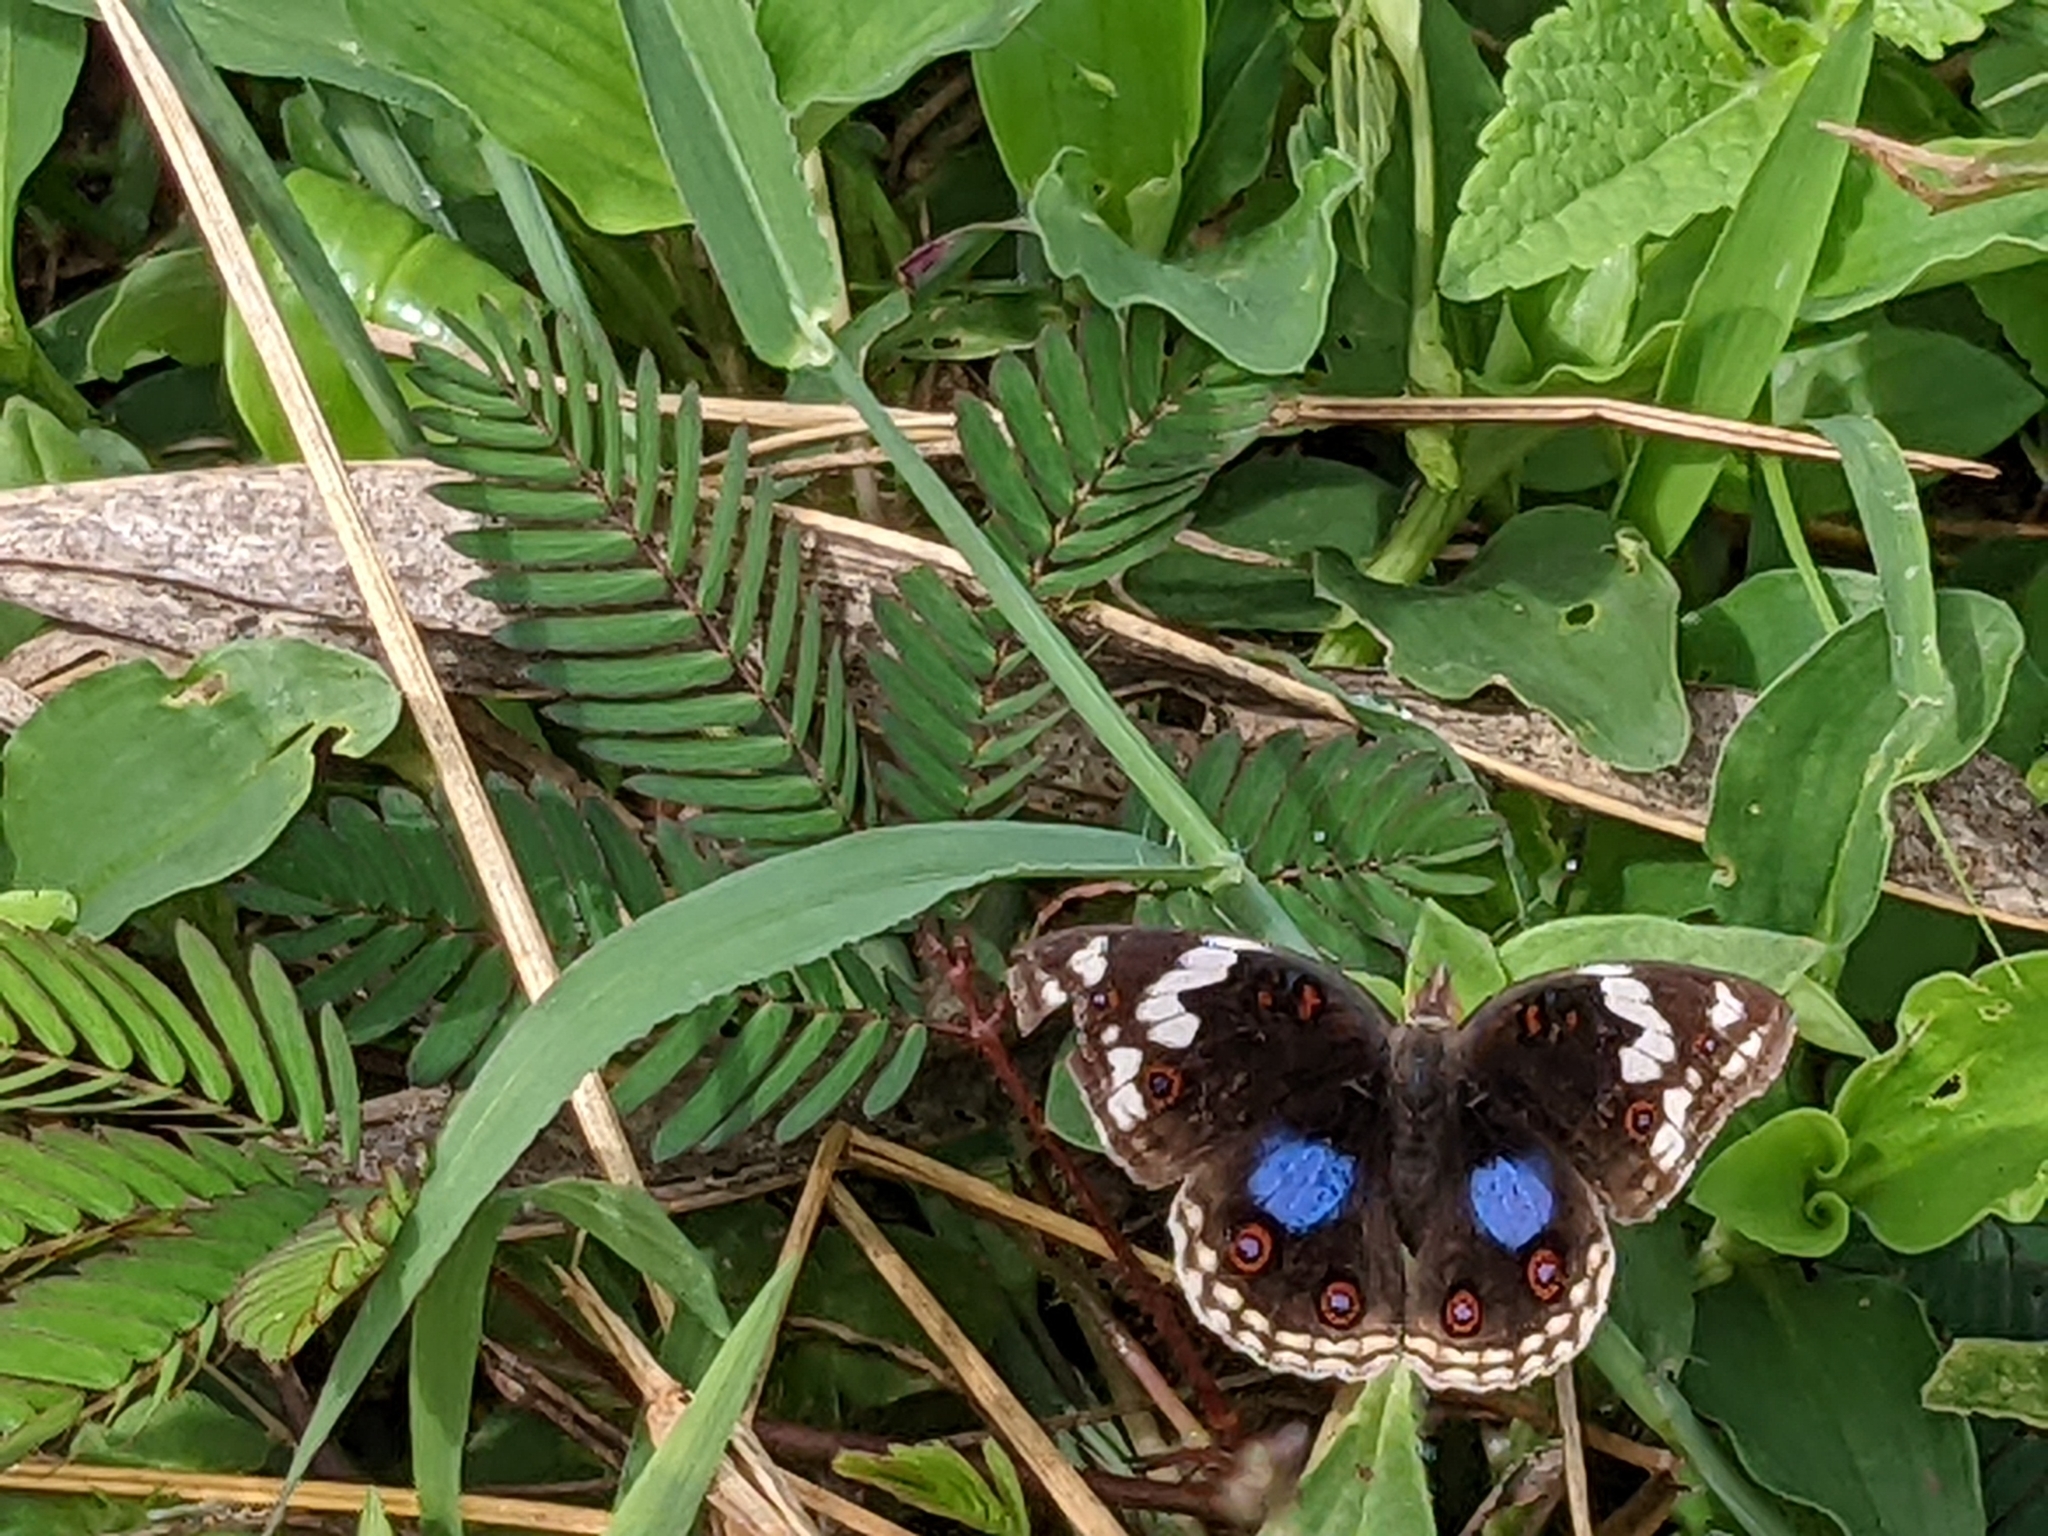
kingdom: Animalia
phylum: Arthropoda
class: Insecta
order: Lepidoptera
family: Nymphalidae
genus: Junonia
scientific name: Junonia oenone
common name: Dark blue pansy
